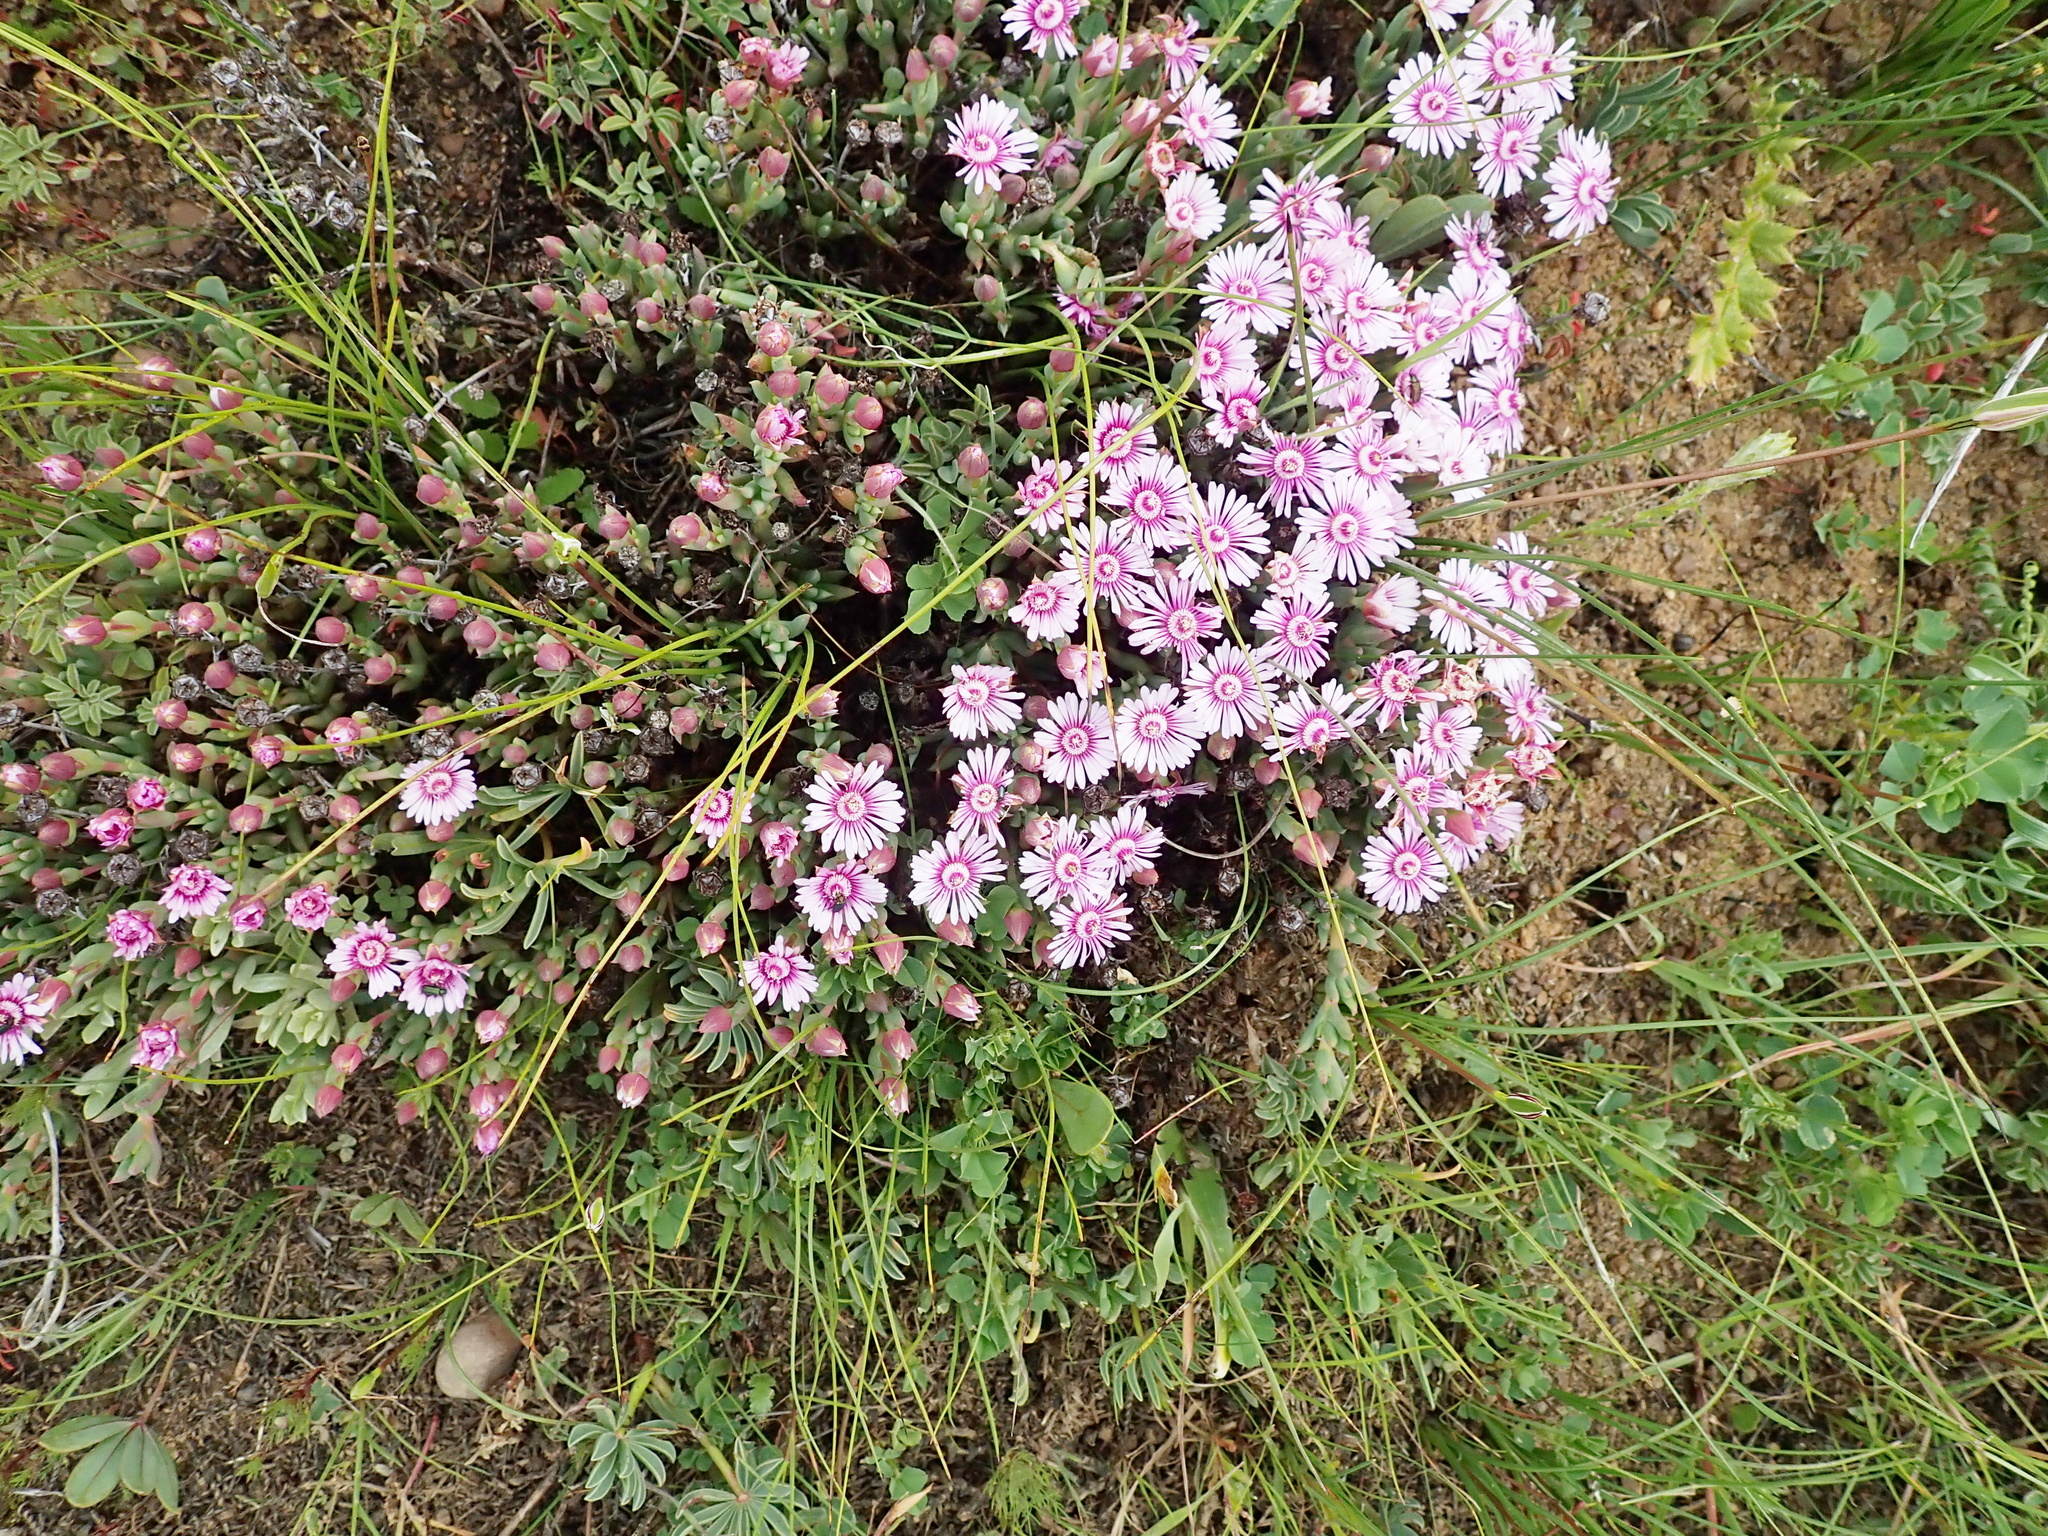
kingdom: Plantae
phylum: Tracheophyta
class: Magnoliopsida
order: Caryophyllales
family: Aizoaceae
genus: Phiambolia
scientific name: Phiambolia unca
